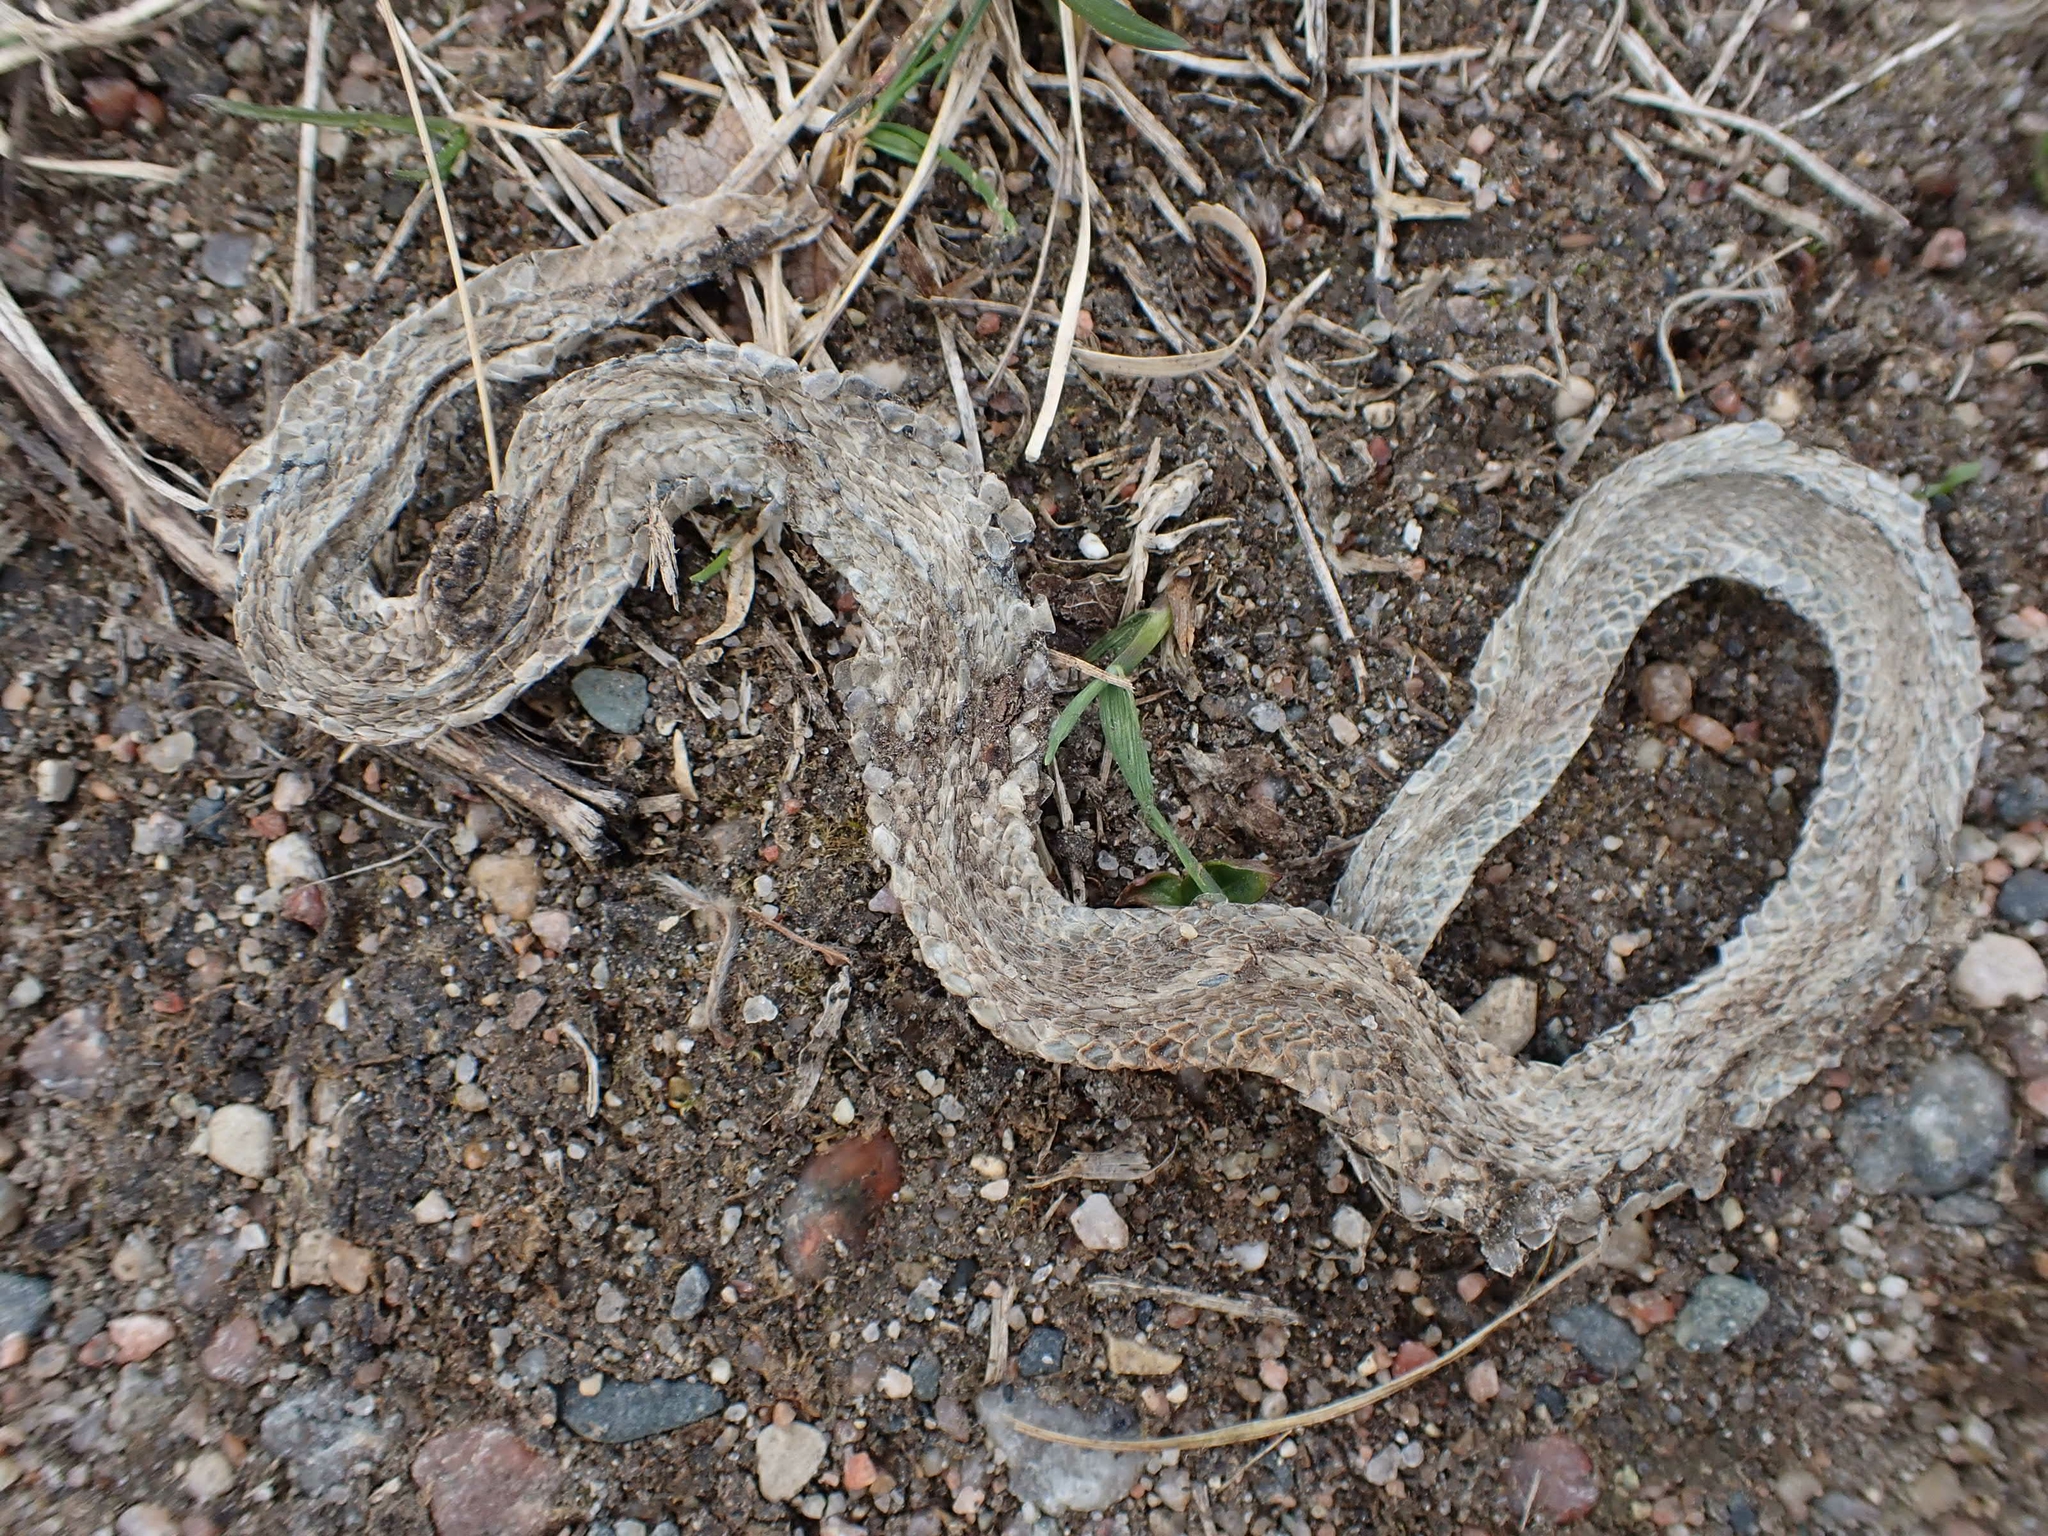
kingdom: Animalia
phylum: Chordata
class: Squamata
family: Colubridae
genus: Thamnophis
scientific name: Thamnophis sirtalis
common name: Common garter snake
